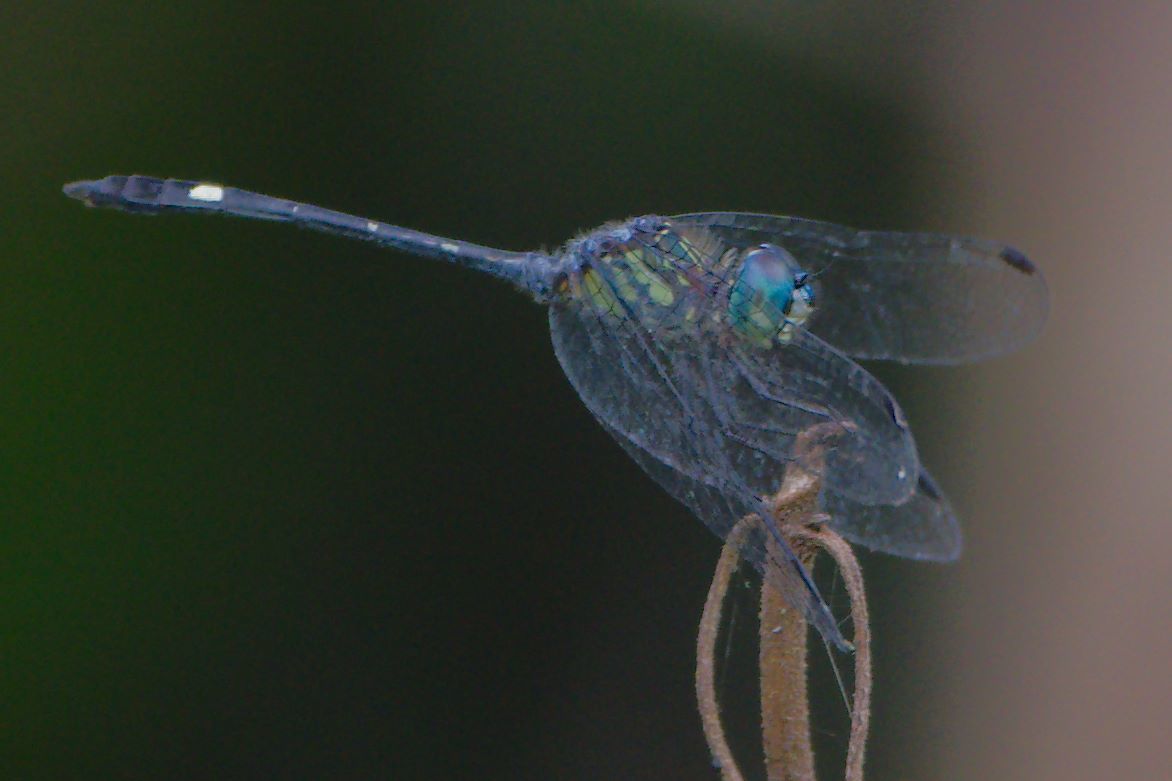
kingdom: Animalia
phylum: Arthropoda
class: Insecta
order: Odonata
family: Libellulidae
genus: Micrathyria
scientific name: Micrathyria didyma
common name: Three-striped dasher
